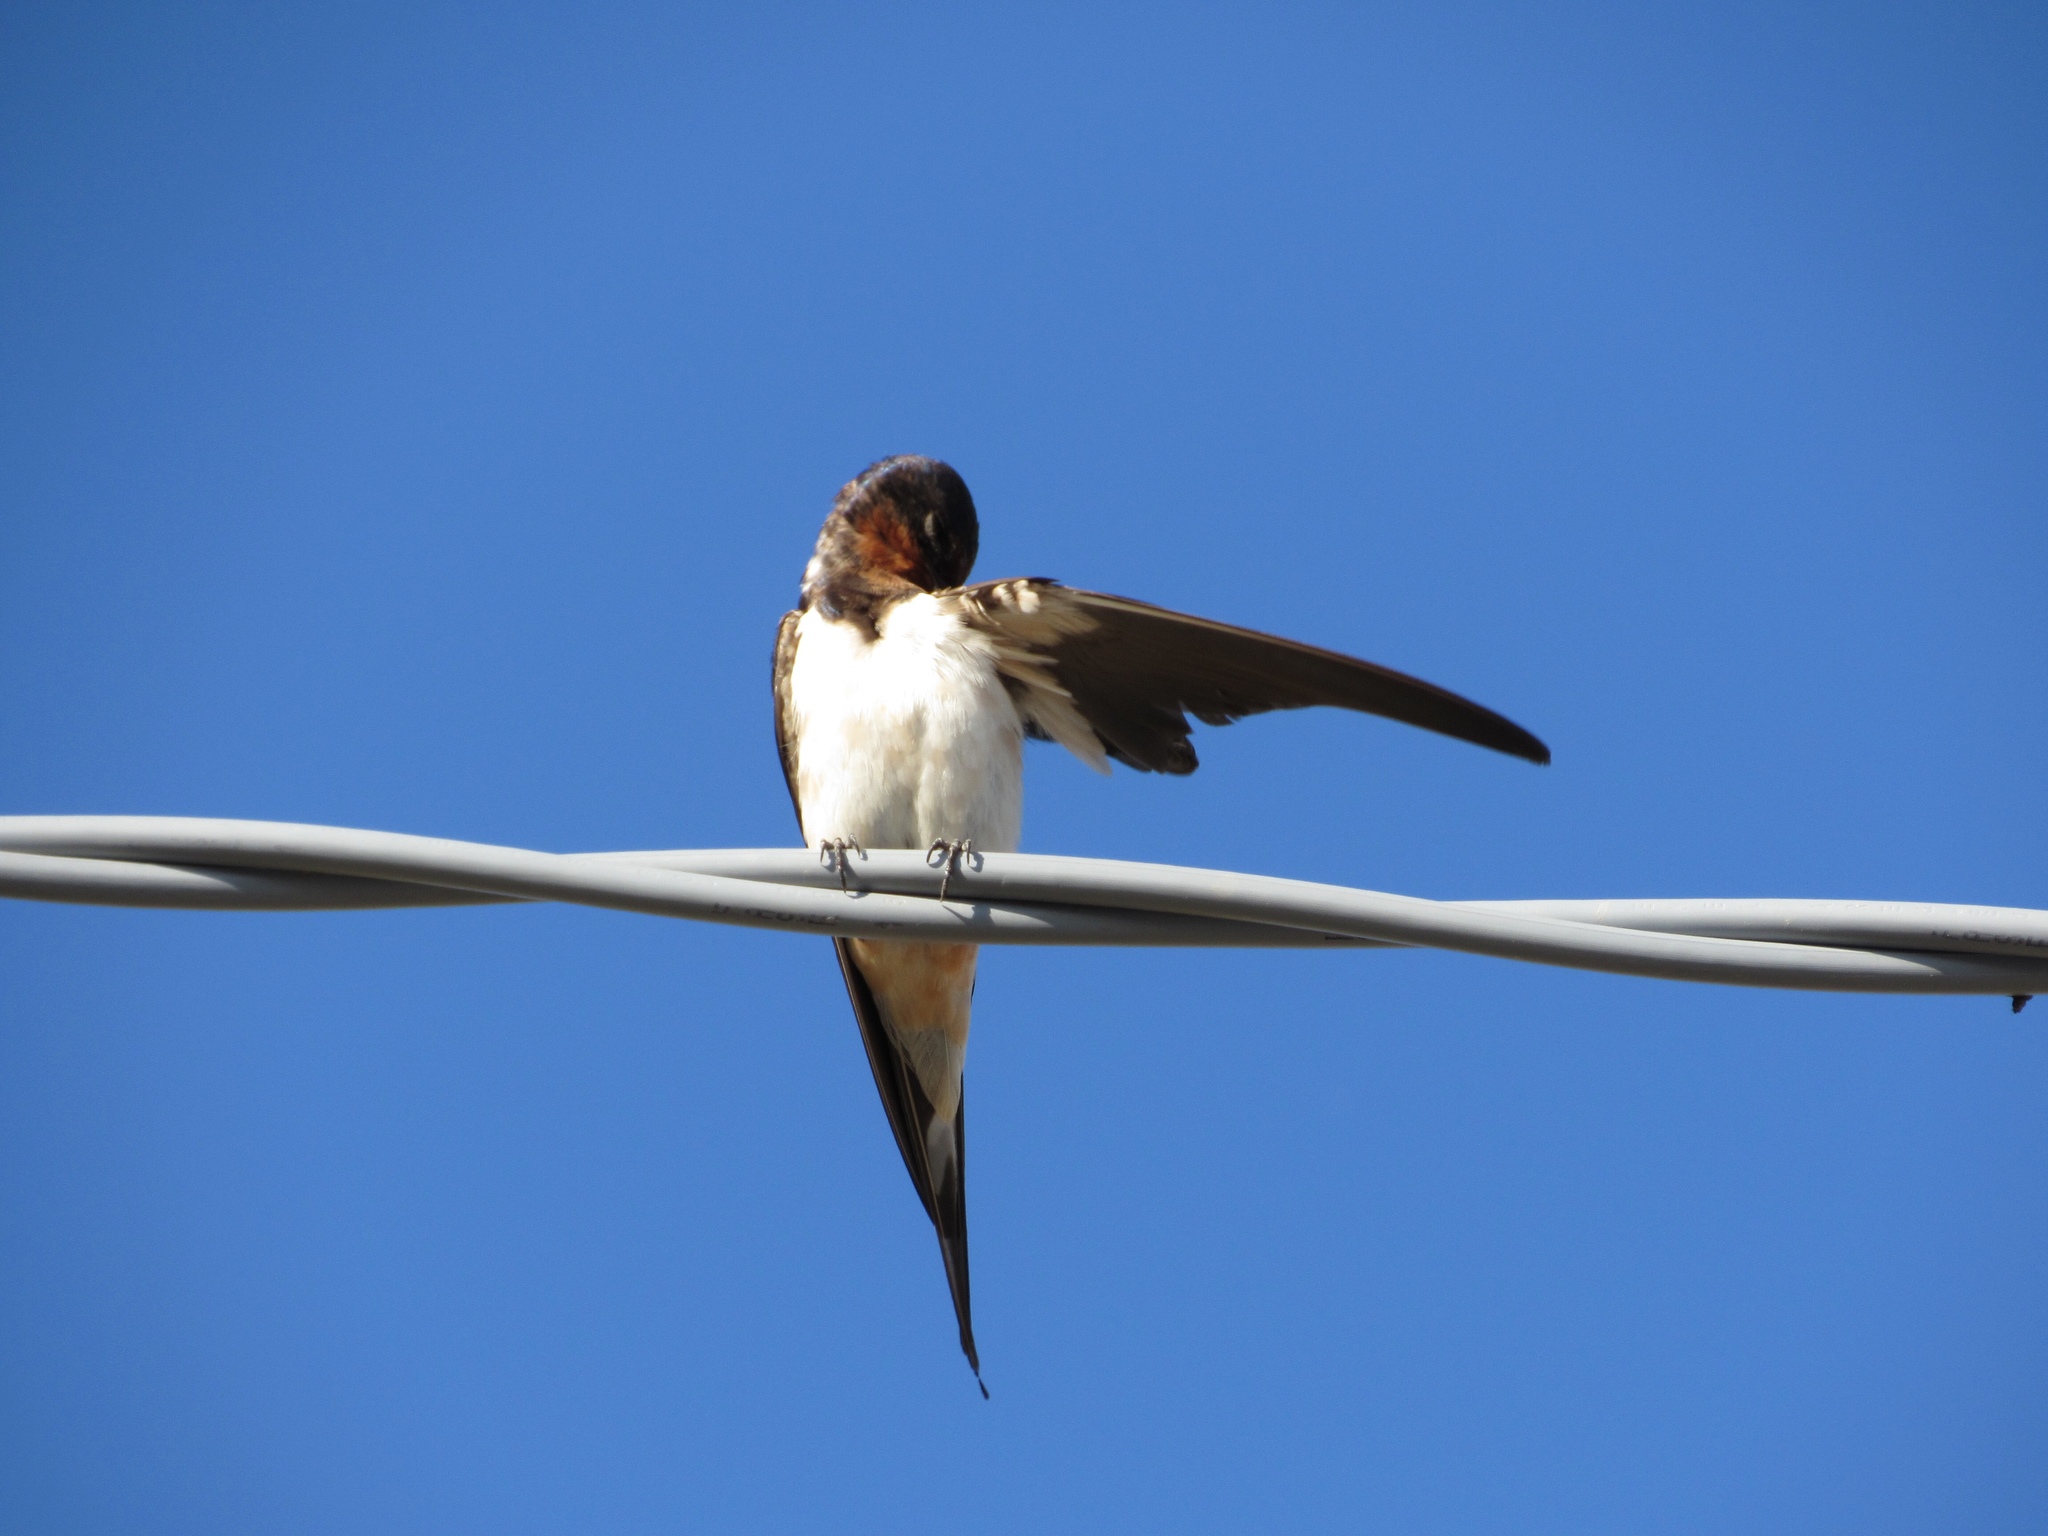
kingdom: Animalia
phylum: Chordata
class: Aves
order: Passeriformes
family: Hirundinidae
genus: Hirundo
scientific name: Hirundo rustica
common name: Barn swallow
